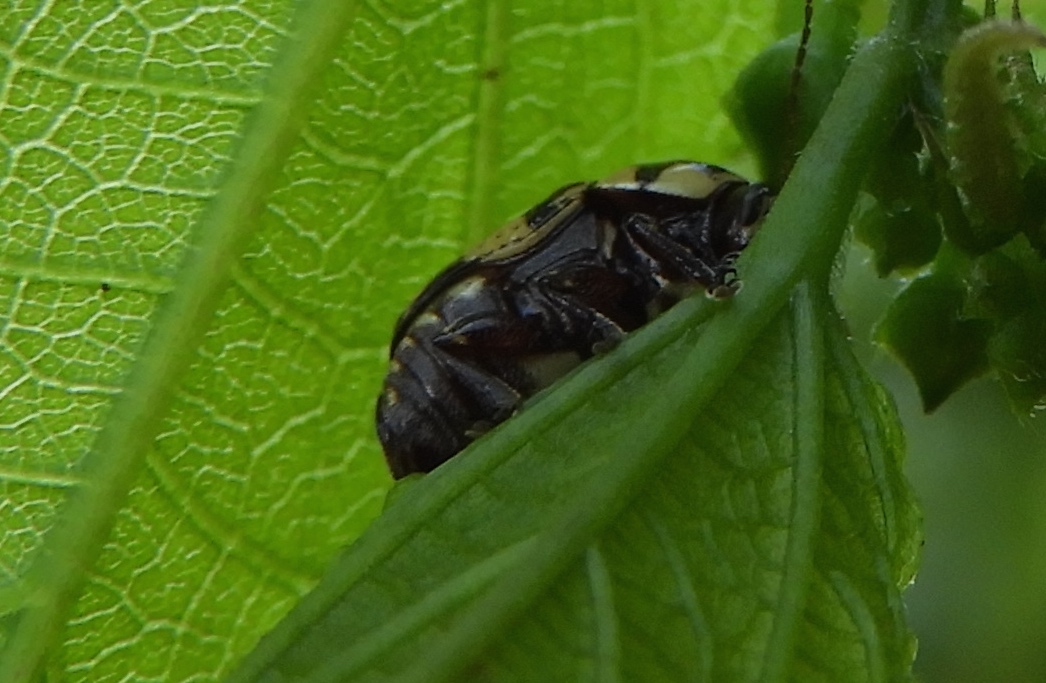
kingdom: Animalia
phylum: Arthropoda
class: Insecta
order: Coleoptera
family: Chrysomelidae
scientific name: Chrysomelidae
